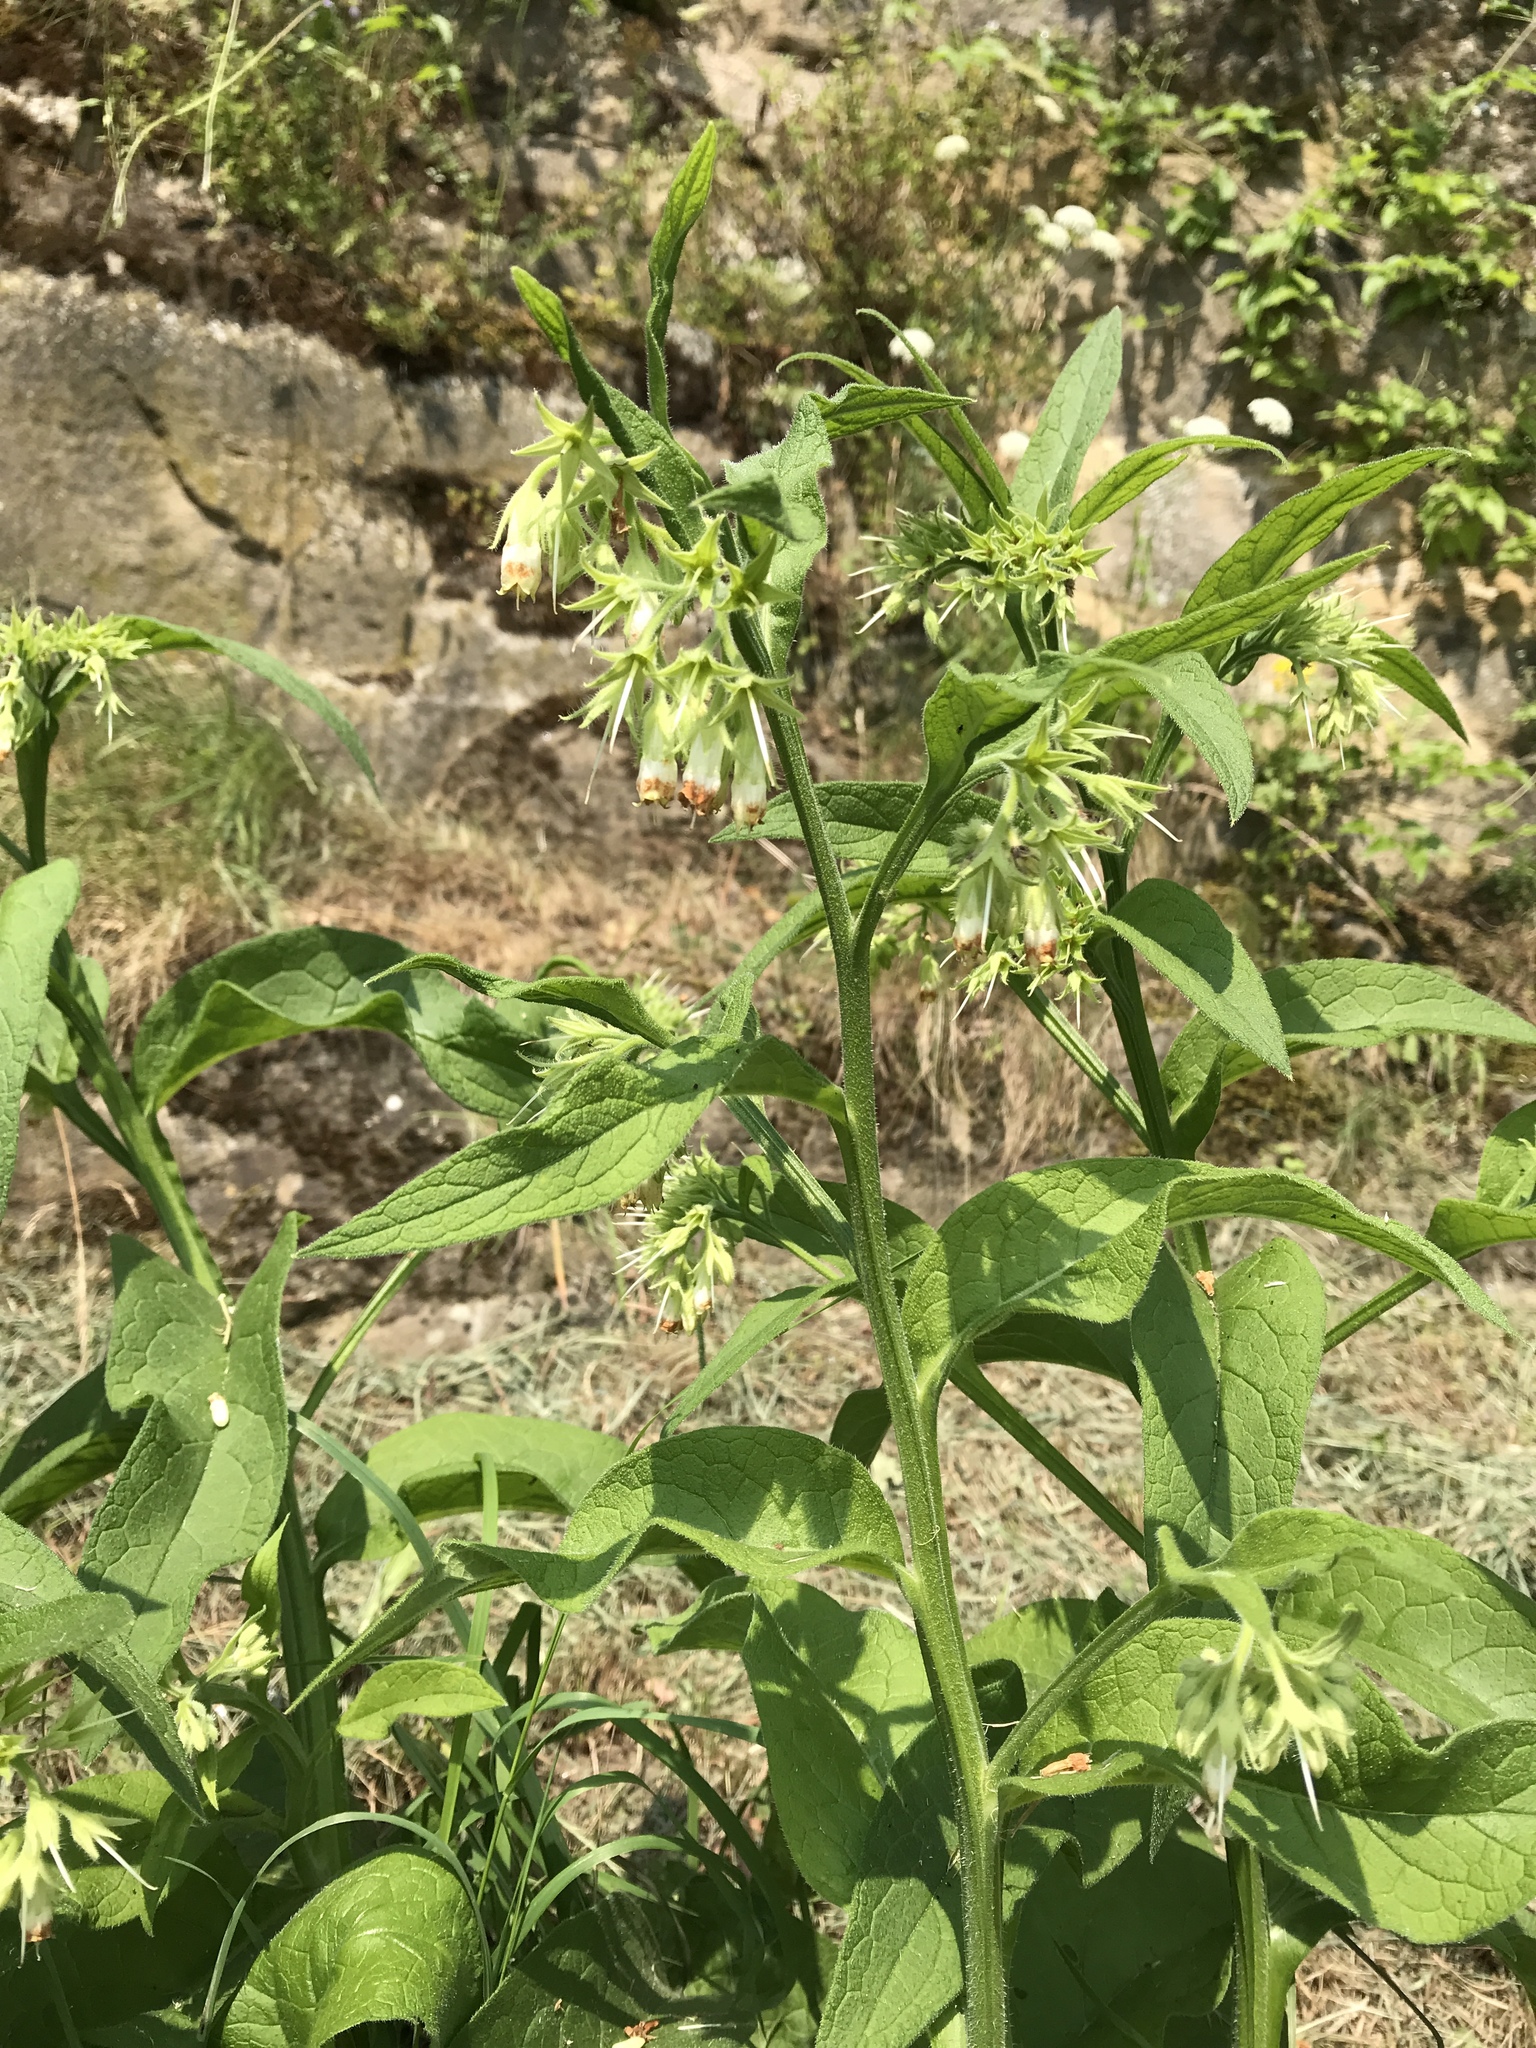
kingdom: Plantae
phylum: Tracheophyta
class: Magnoliopsida
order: Boraginales
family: Boraginaceae
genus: Symphytum
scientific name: Symphytum officinale
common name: Common comfrey
